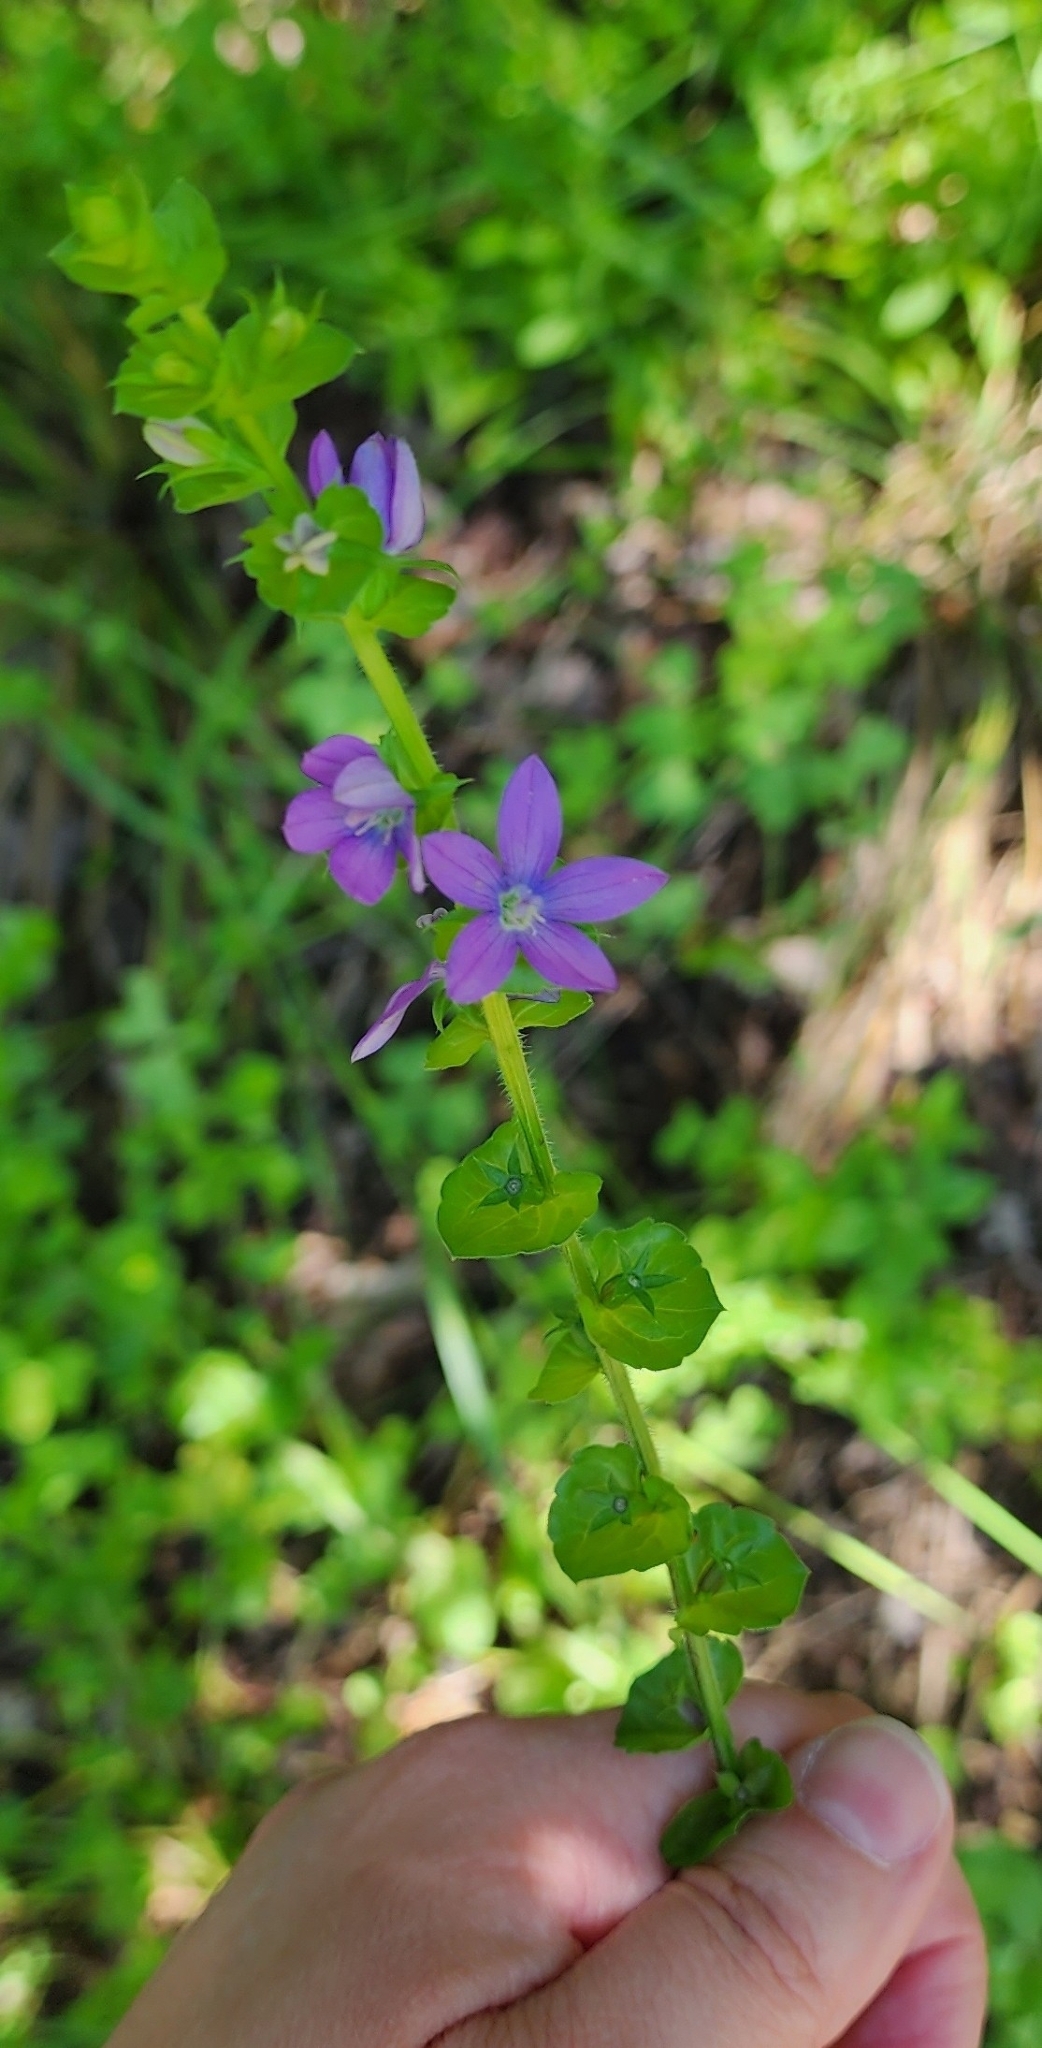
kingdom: Plantae
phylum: Tracheophyta
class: Magnoliopsida
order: Asterales
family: Campanulaceae
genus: Triodanis
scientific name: Triodanis perfoliata
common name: Clasping venus' looking-glass
